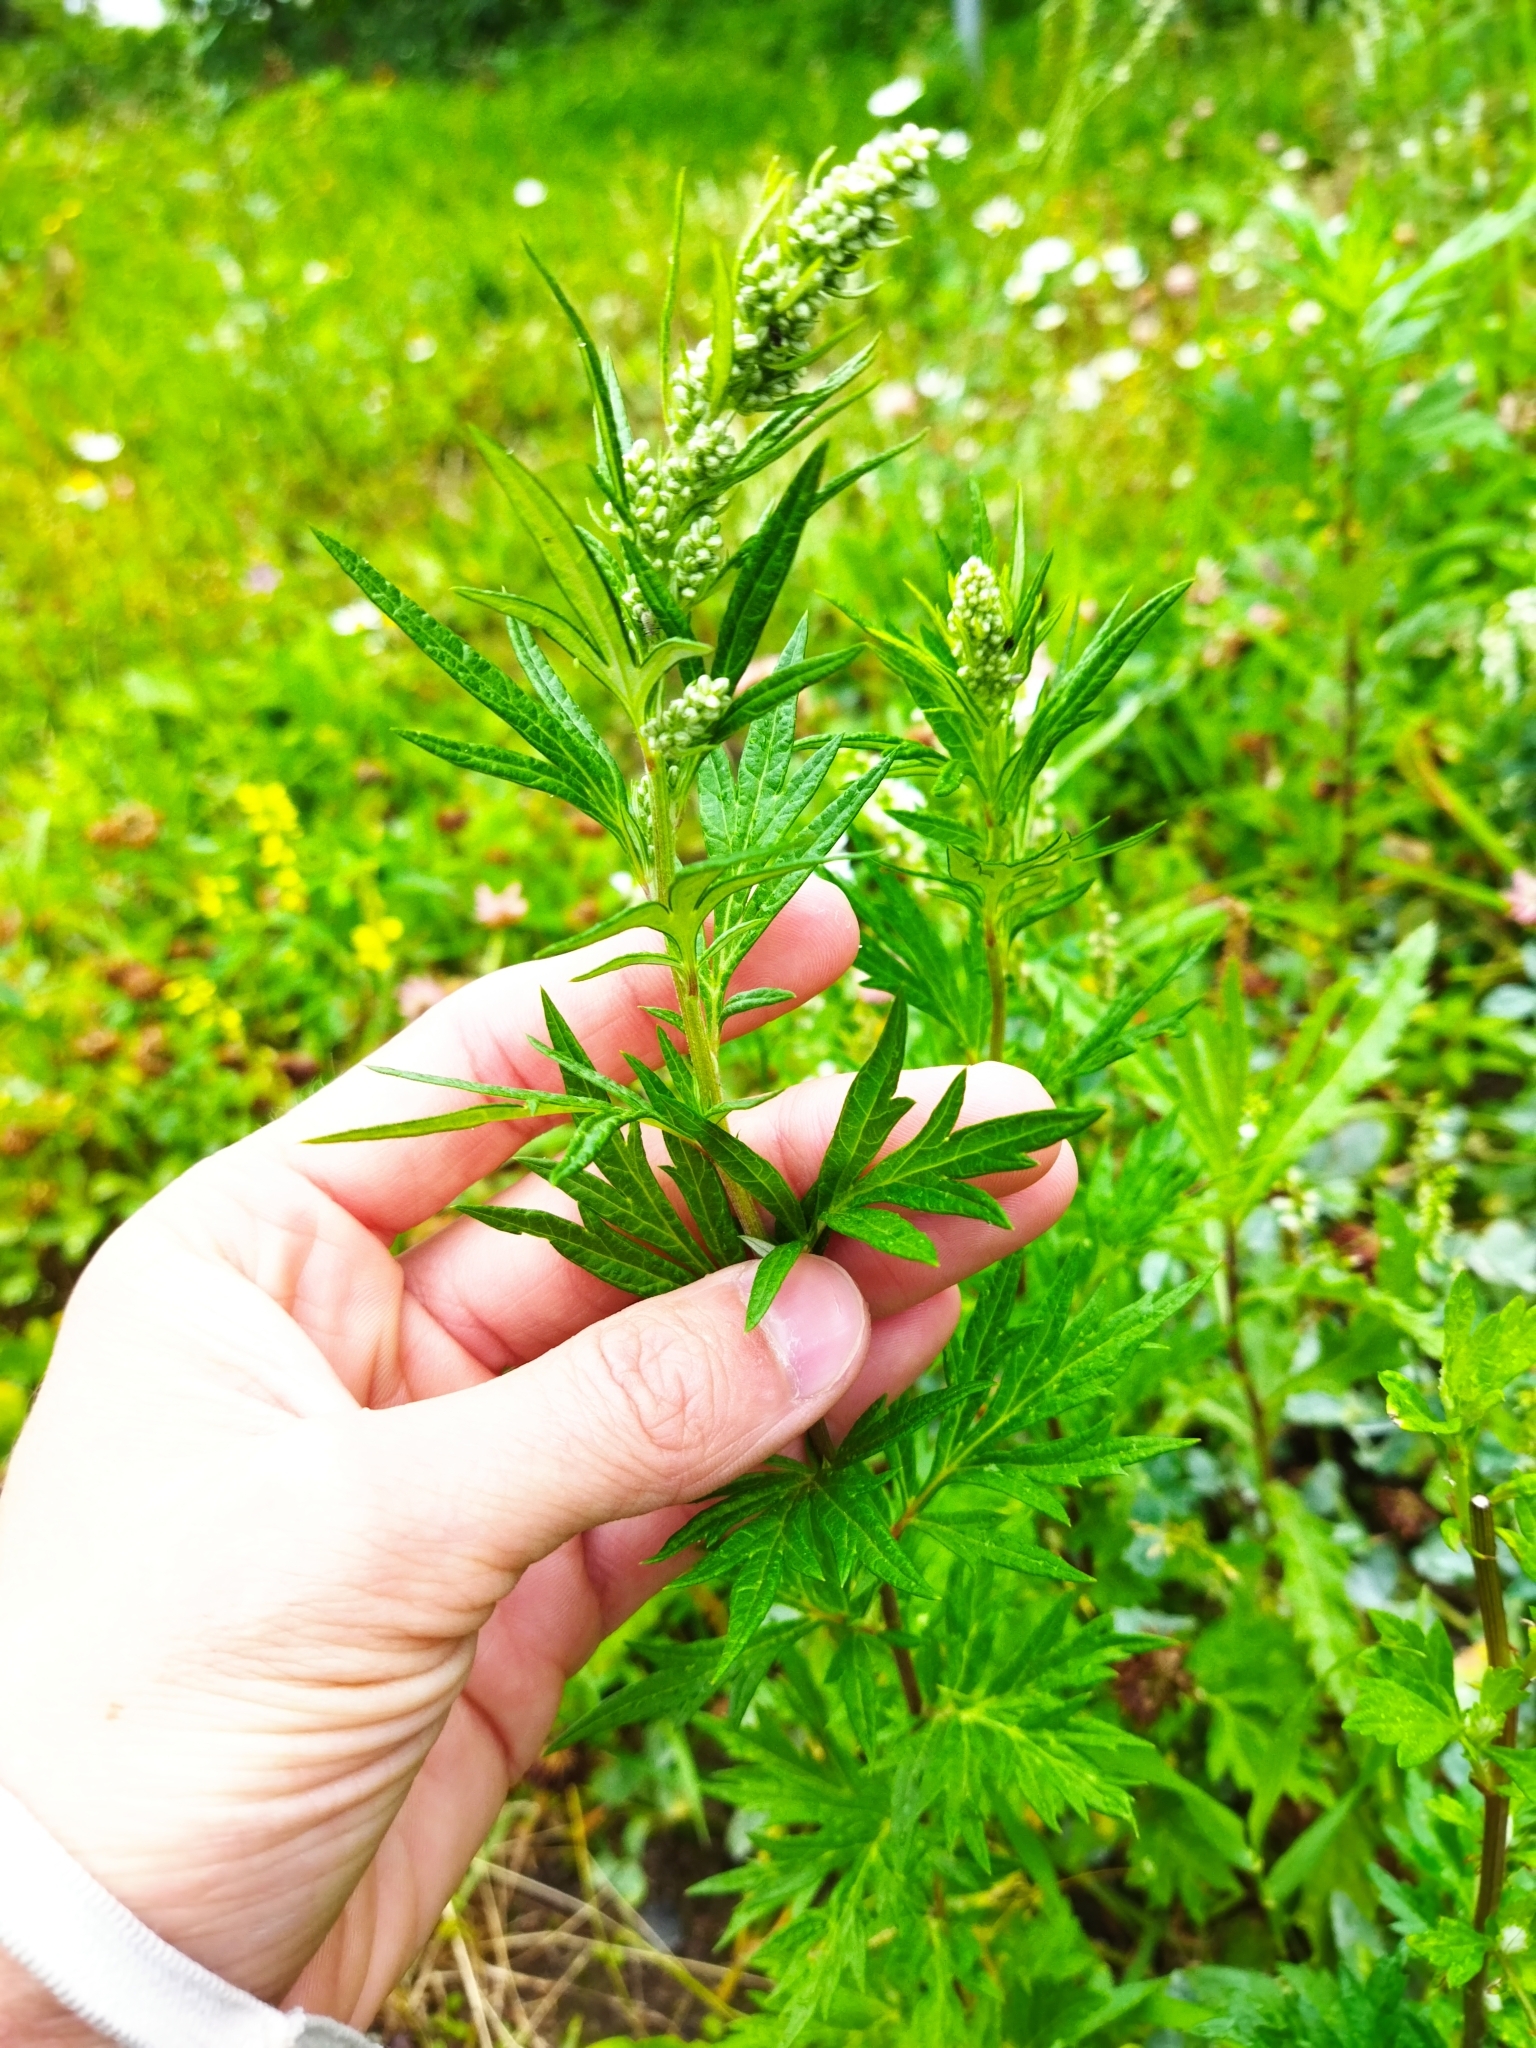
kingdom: Plantae
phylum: Tracheophyta
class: Magnoliopsida
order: Asterales
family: Asteraceae
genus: Artemisia
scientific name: Artemisia vulgaris
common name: Mugwort
